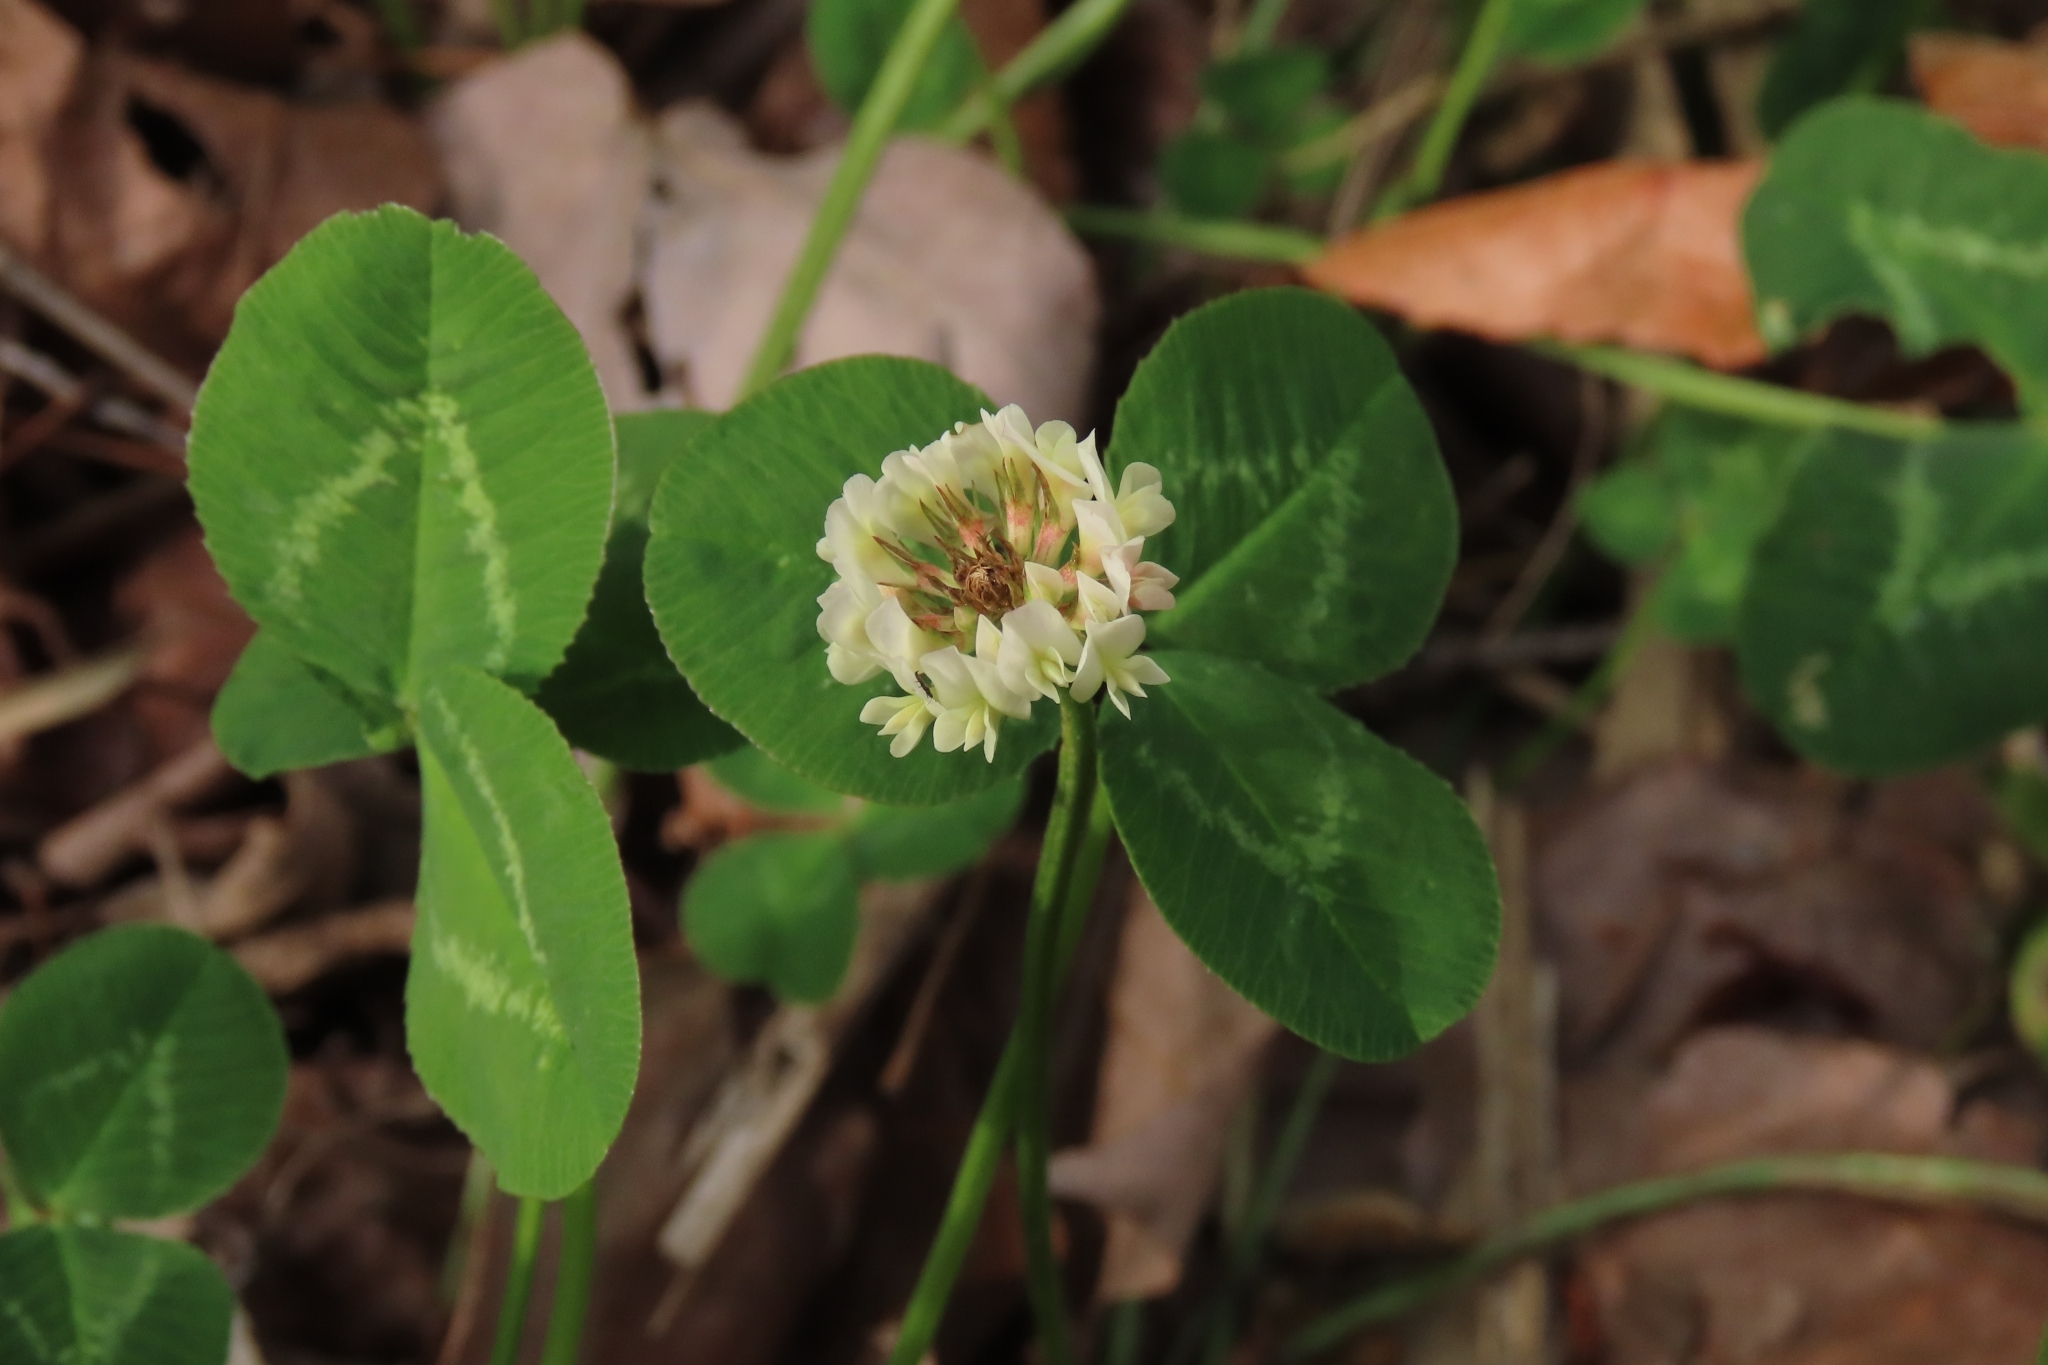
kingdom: Plantae
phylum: Tracheophyta
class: Magnoliopsida
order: Fabales
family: Fabaceae
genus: Trifolium
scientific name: Trifolium repens
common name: White clover
